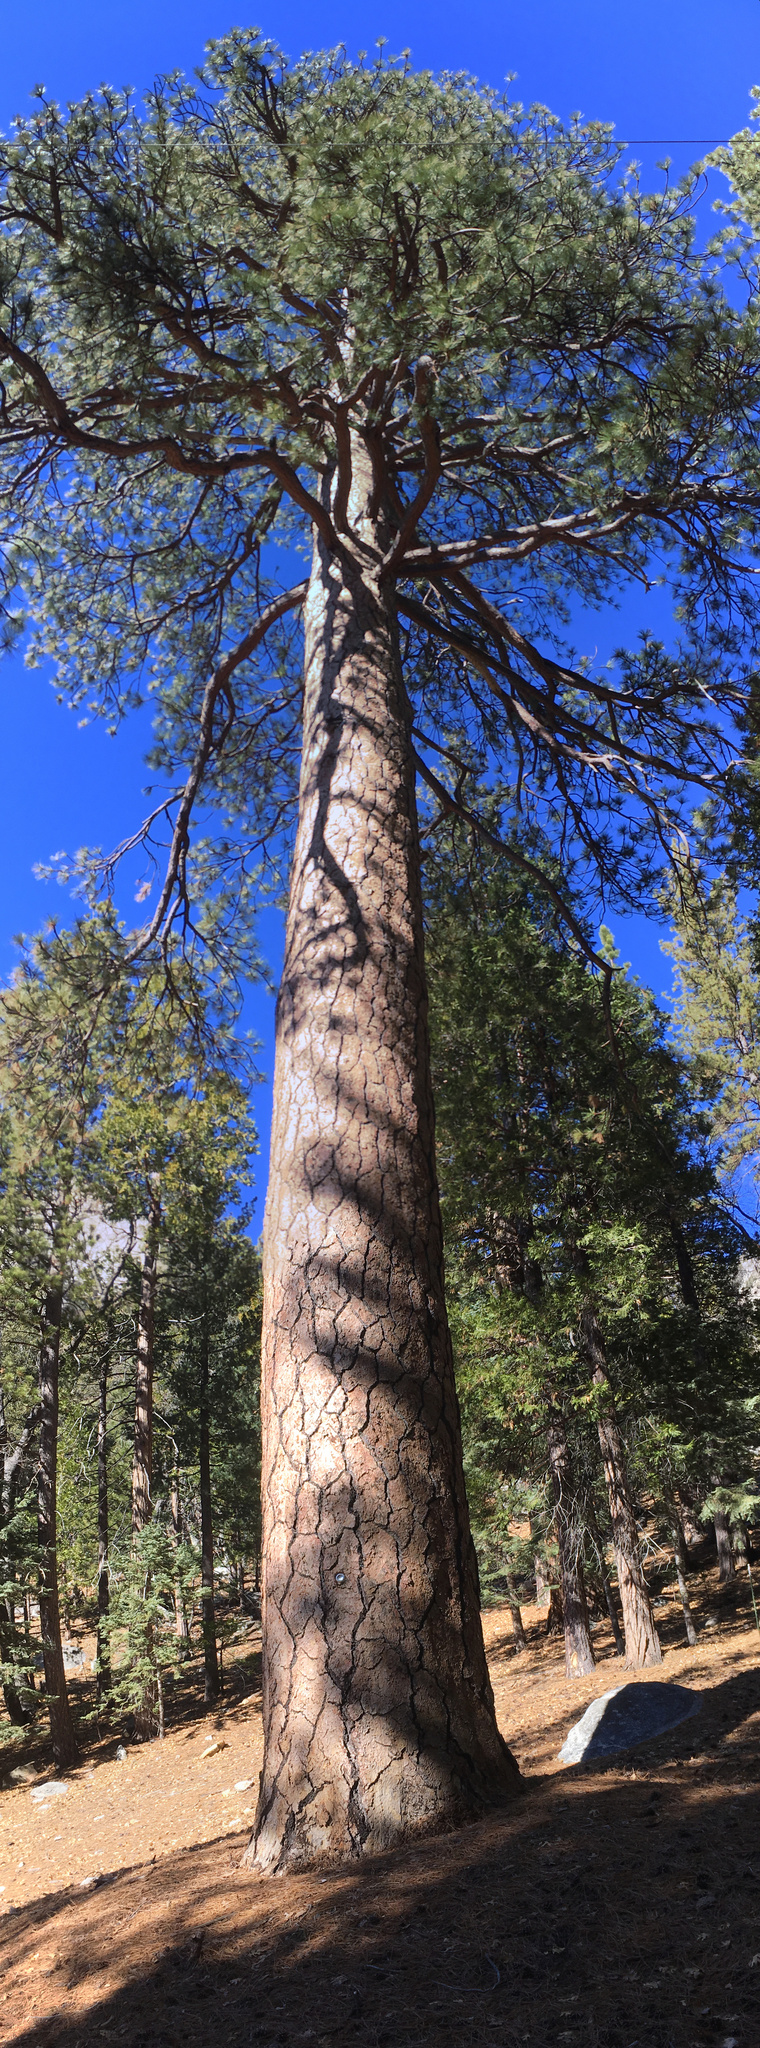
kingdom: Plantae
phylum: Tracheophyta
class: Pinopsida
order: Pinales
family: Pinaceae
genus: Pinus
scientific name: Pinus ponderosa
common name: Western yellow-pine
